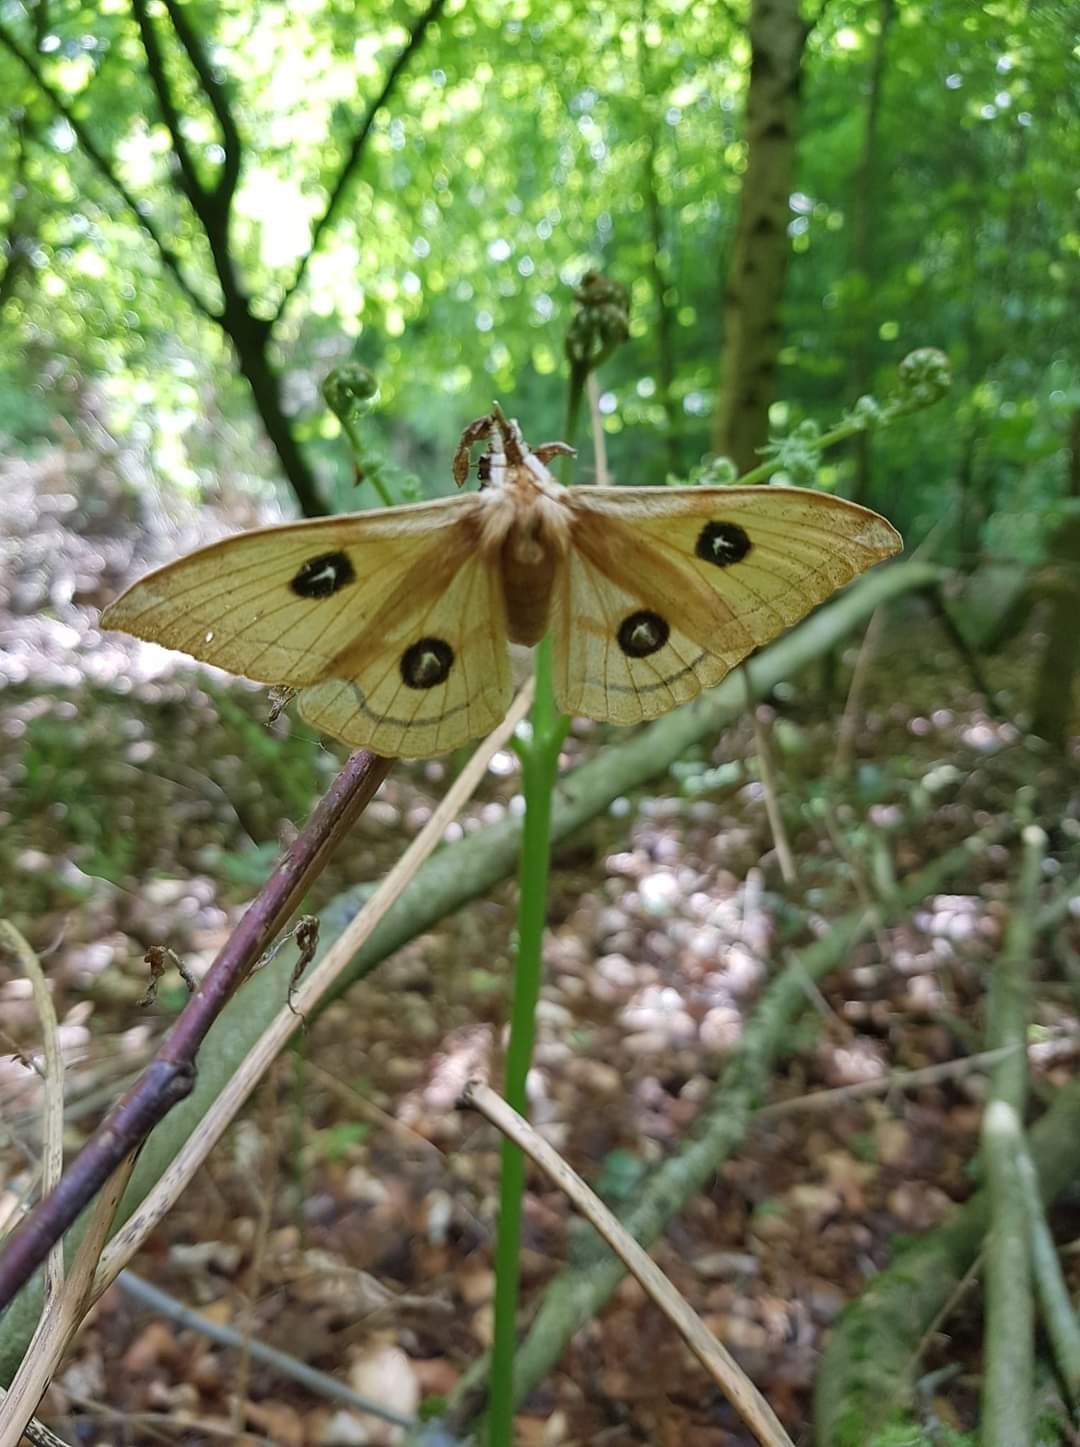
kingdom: Animalia
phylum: Arthropoda
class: Insecta
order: Lepidoptera
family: Saturniidae
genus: Aglia
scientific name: Aglia tau
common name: Tau emperor
